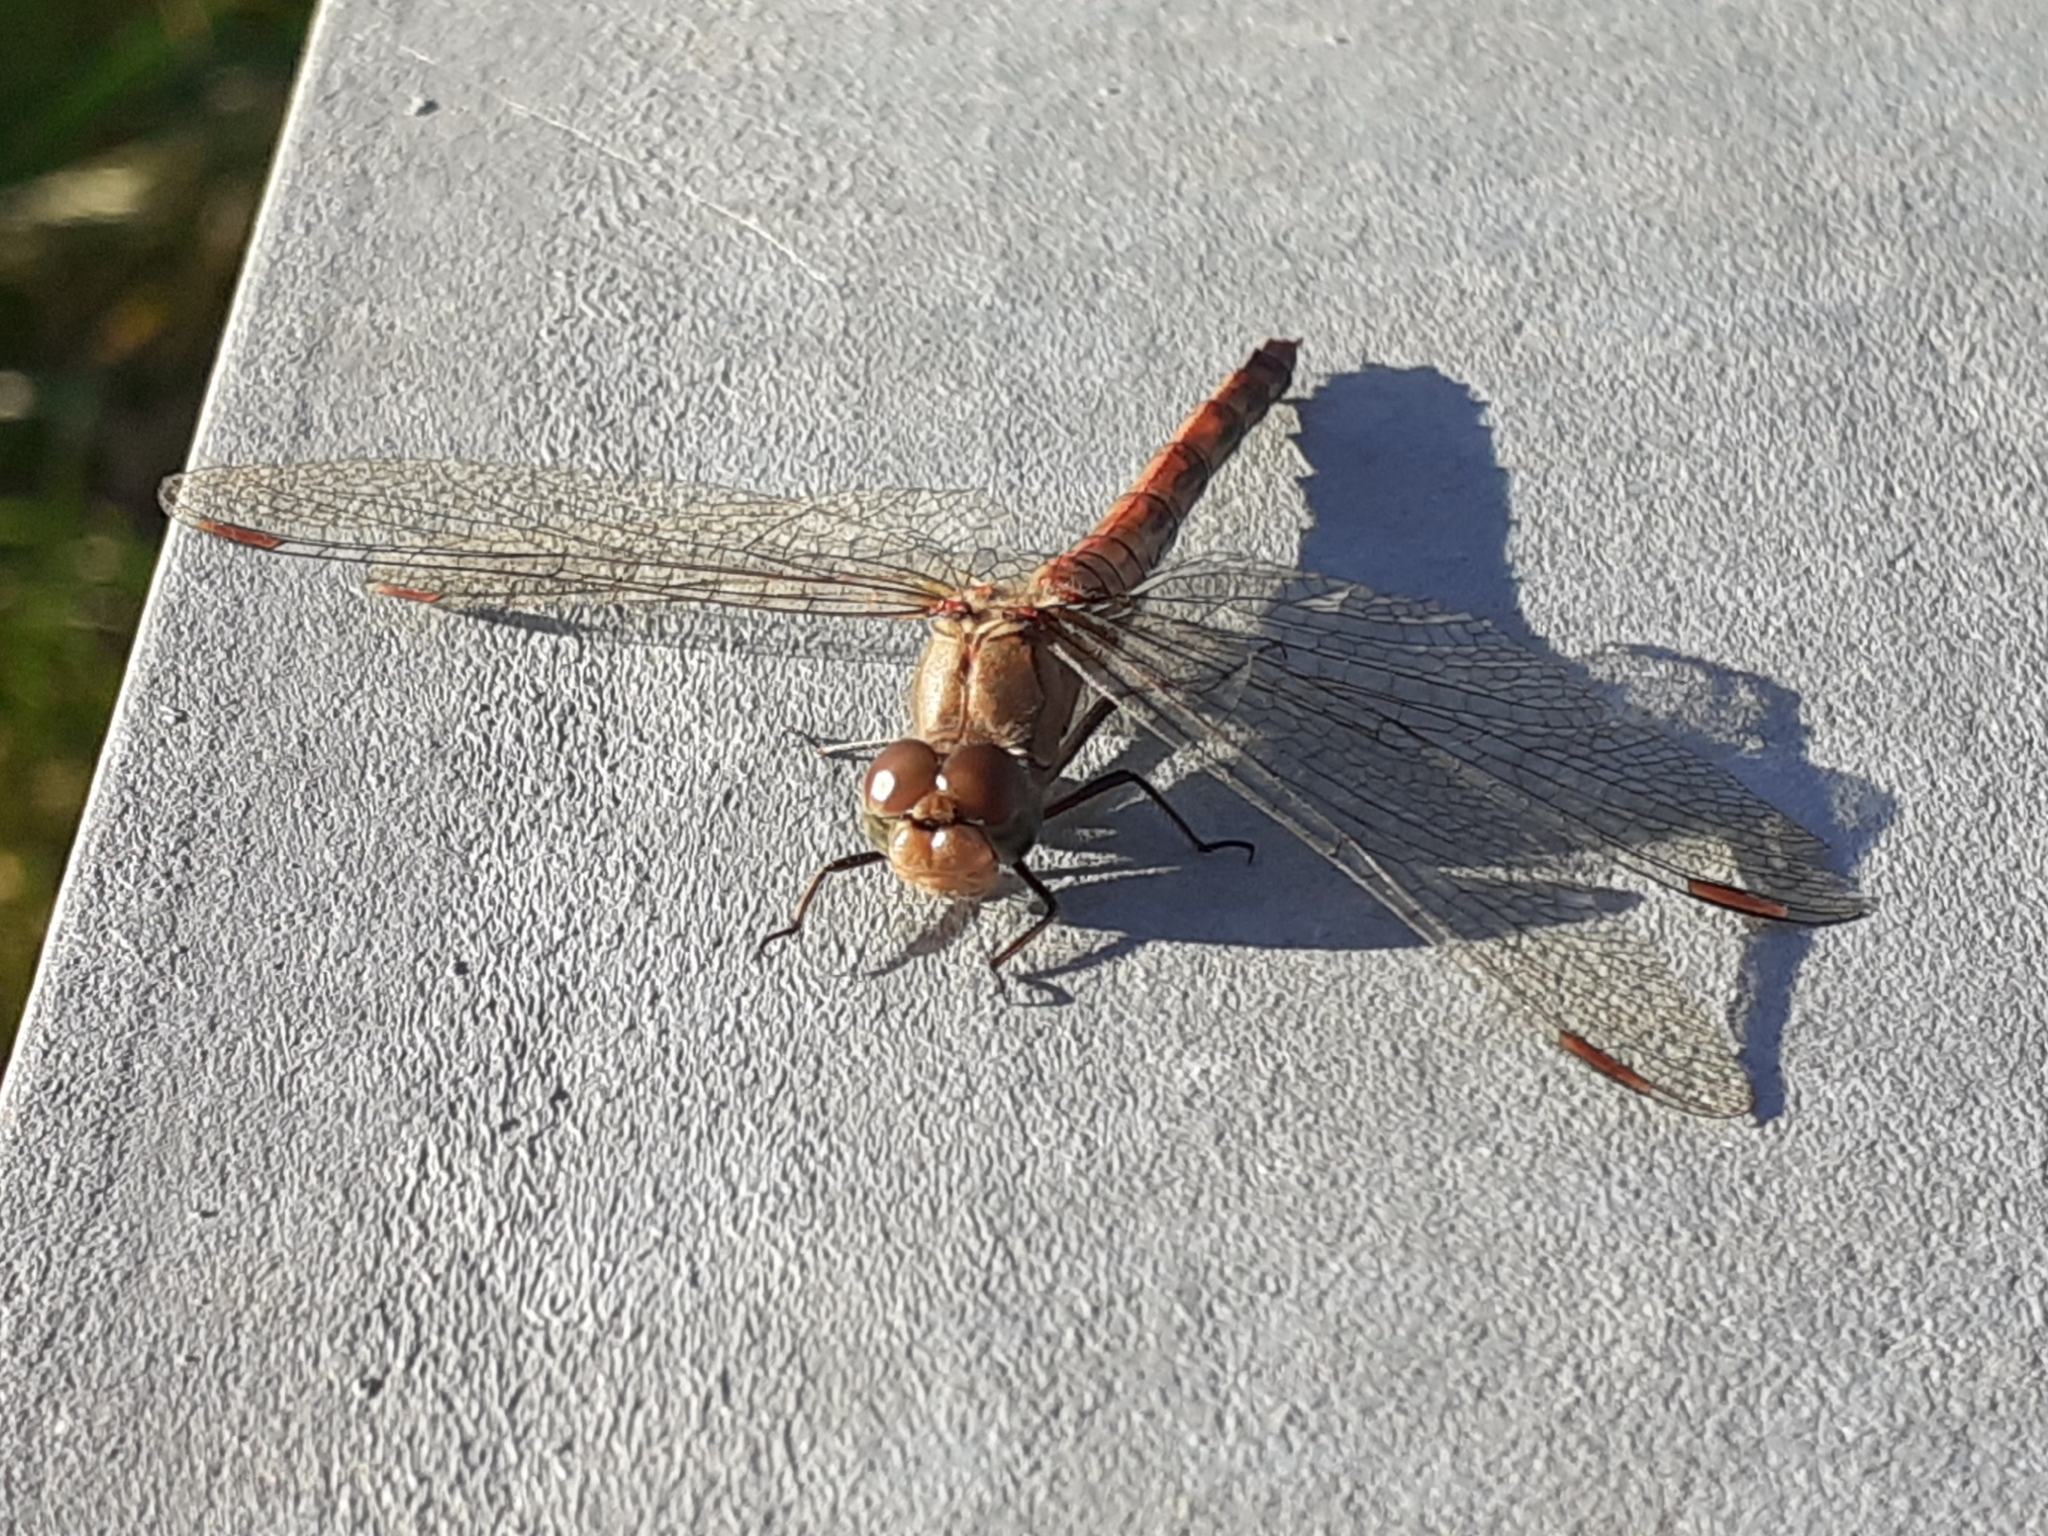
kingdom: Animalia
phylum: Arthropoda
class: Insecta
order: Odonata
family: Libellulidae
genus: Sympetrum
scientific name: Sympetrum striolatum
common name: Common darter
